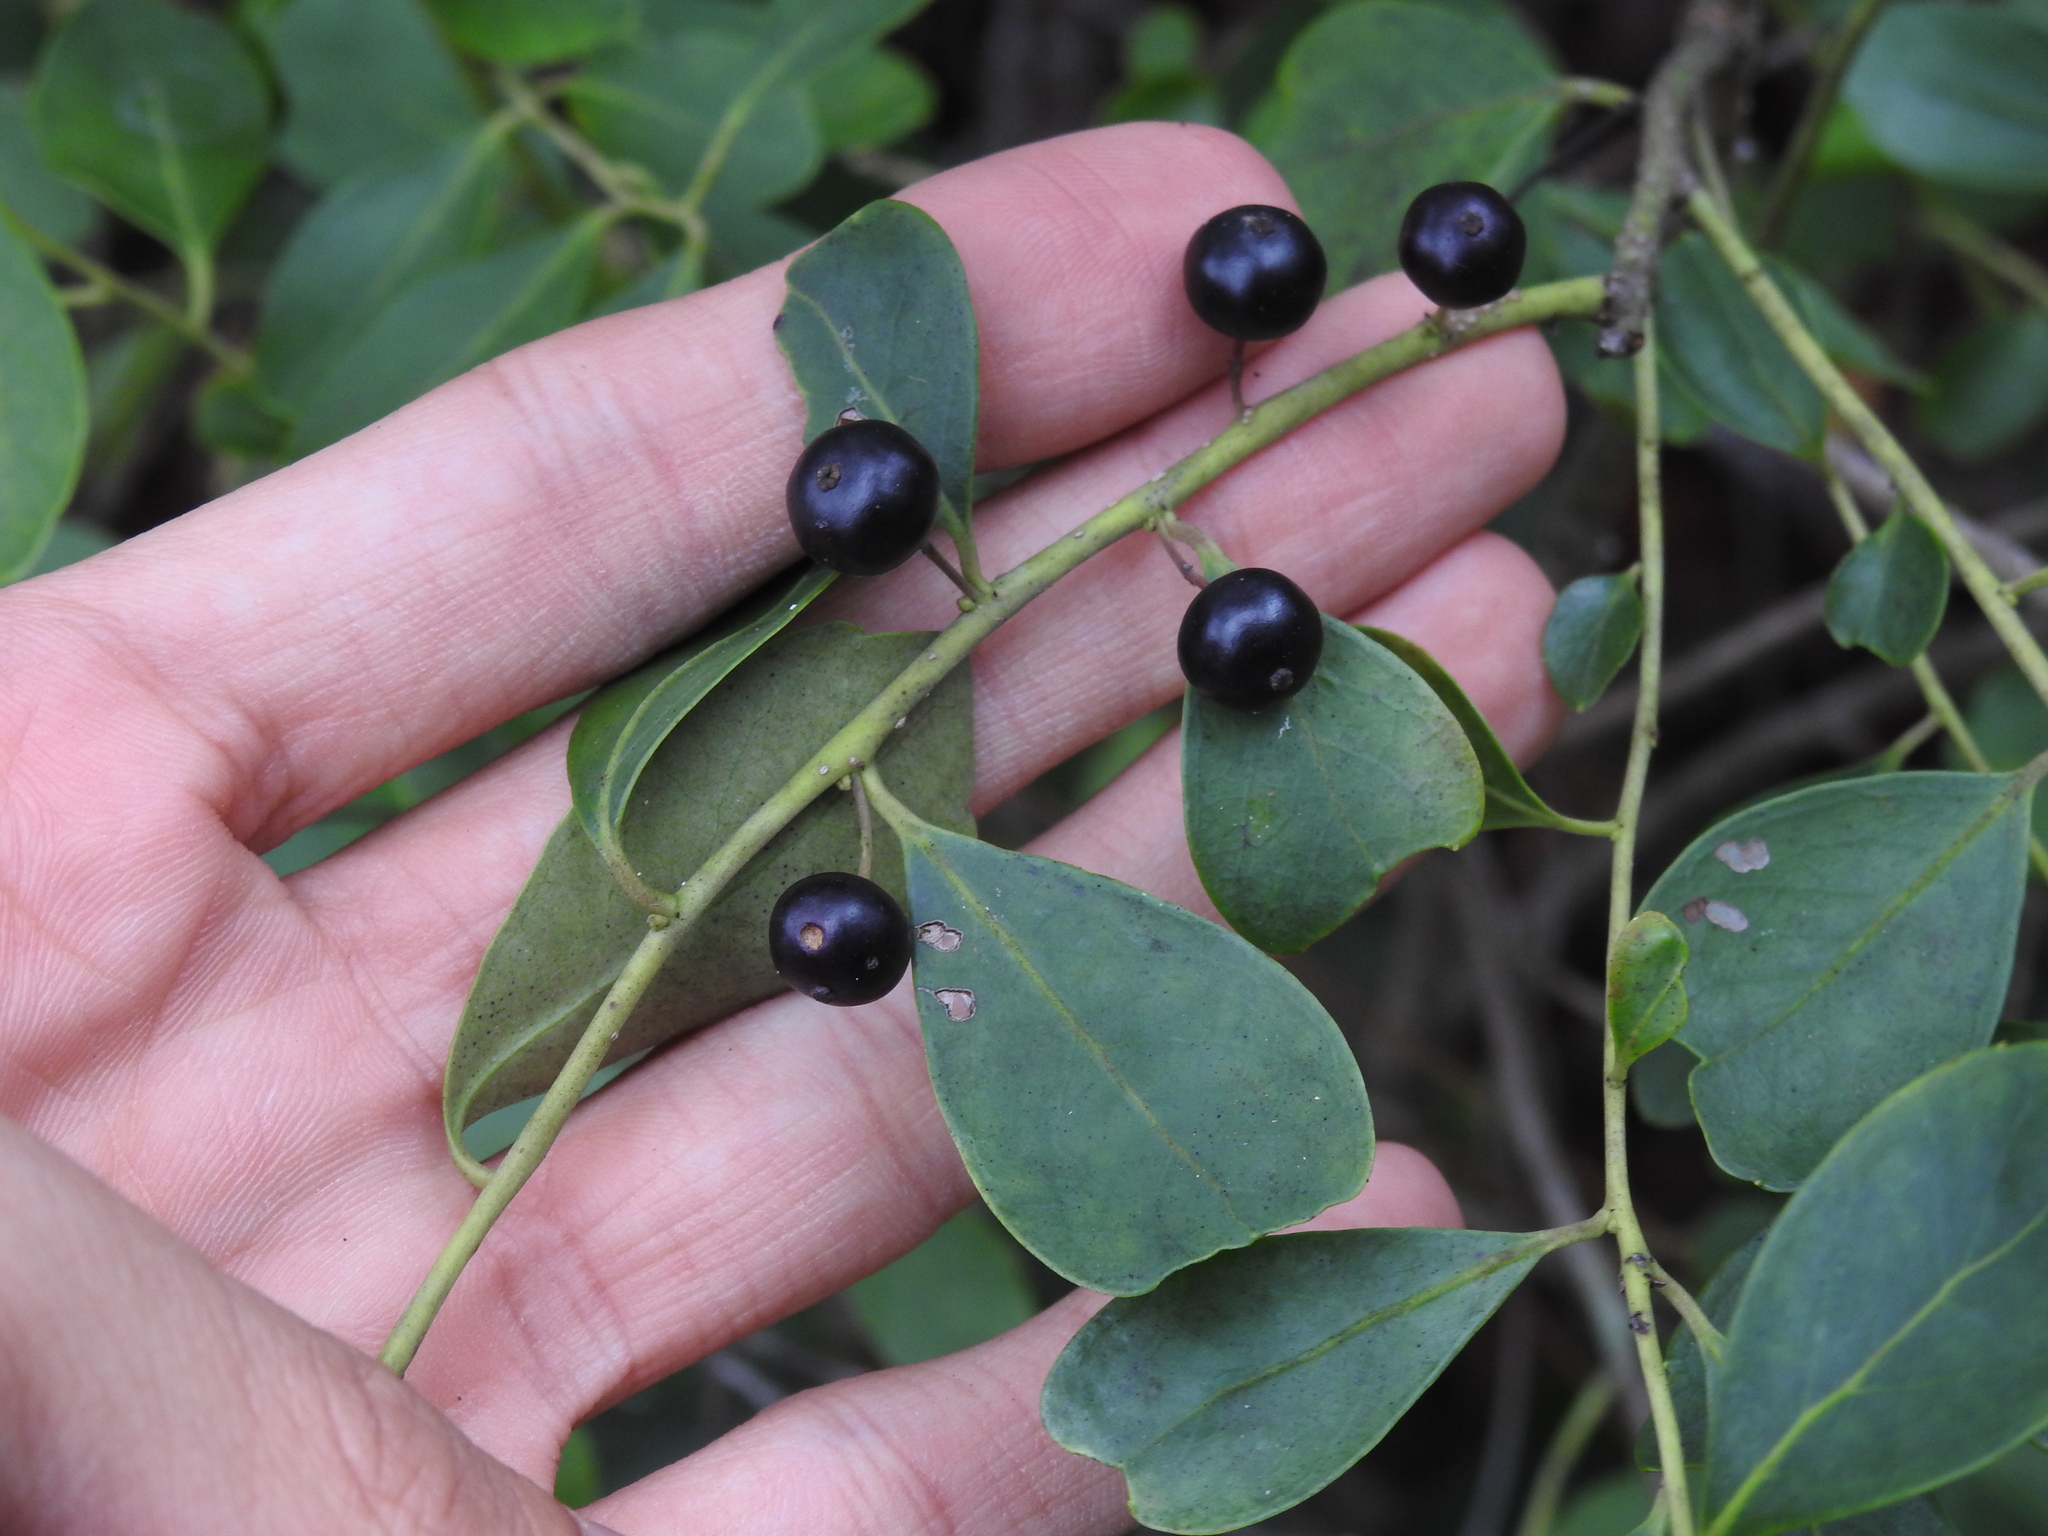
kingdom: Plantae
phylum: Tracheophyta
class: Magnoliopsida
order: Aquifoliales
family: Aquifoliaceae
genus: Ilex
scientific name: Ilex glabra
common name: Bitter gallberry
